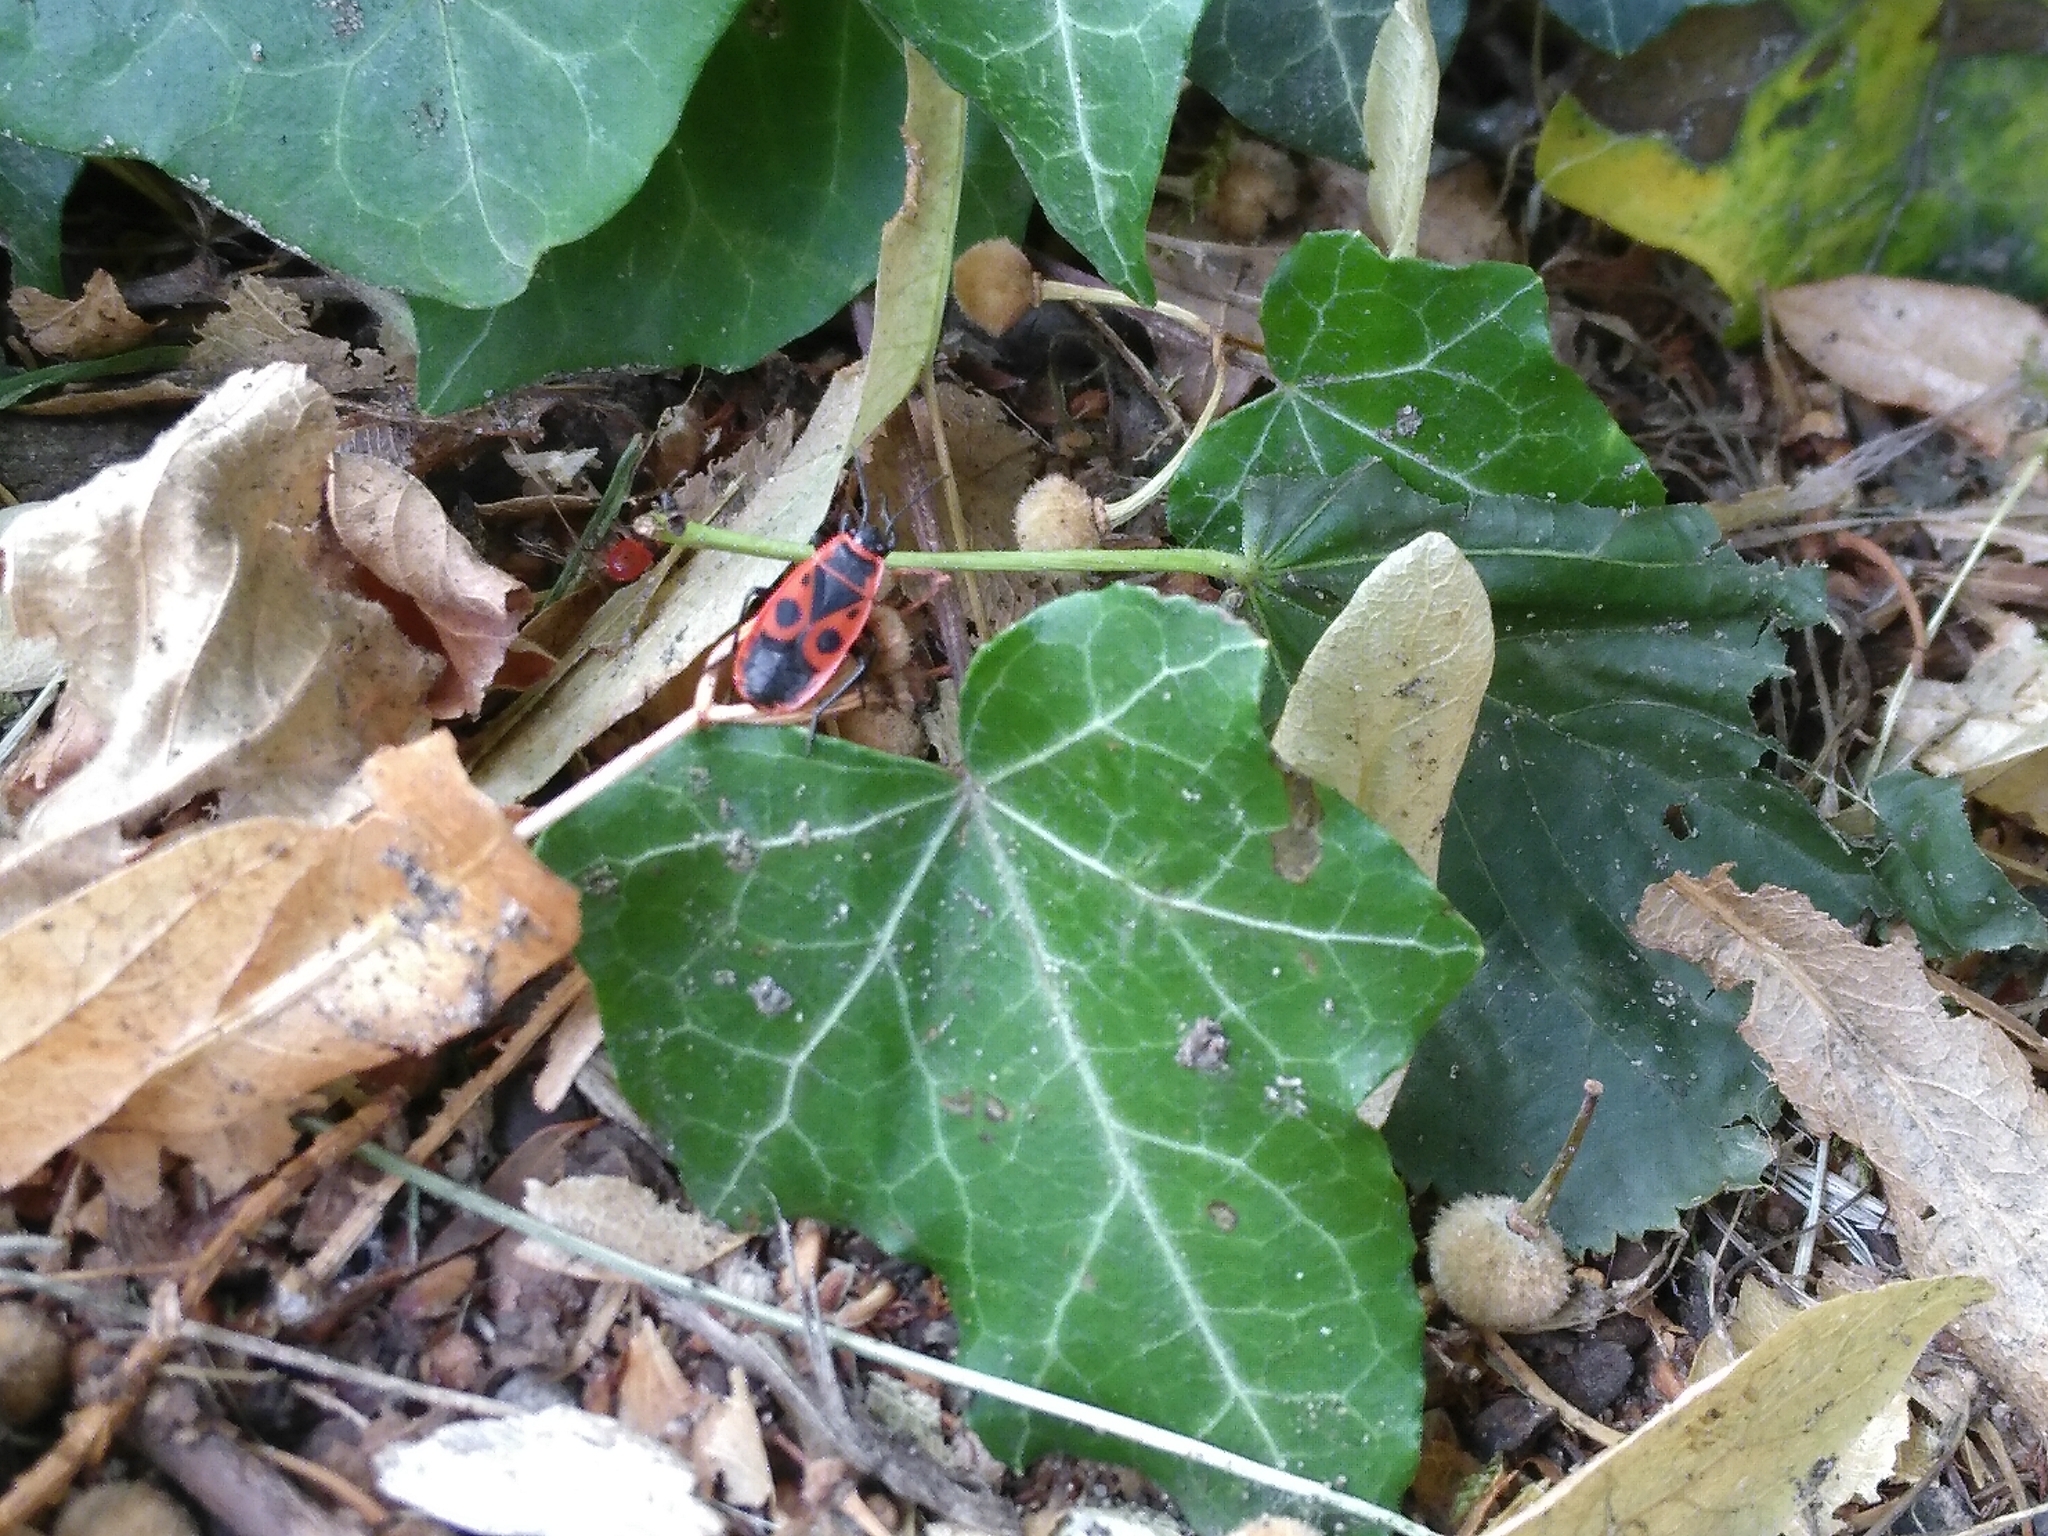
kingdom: Animalia
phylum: Arthropoda
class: Insecta
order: Hemiptera
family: Pyrrhocoridae
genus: Pyrrhocoris
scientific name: Pyrrhocoris apterus
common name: Firebug
